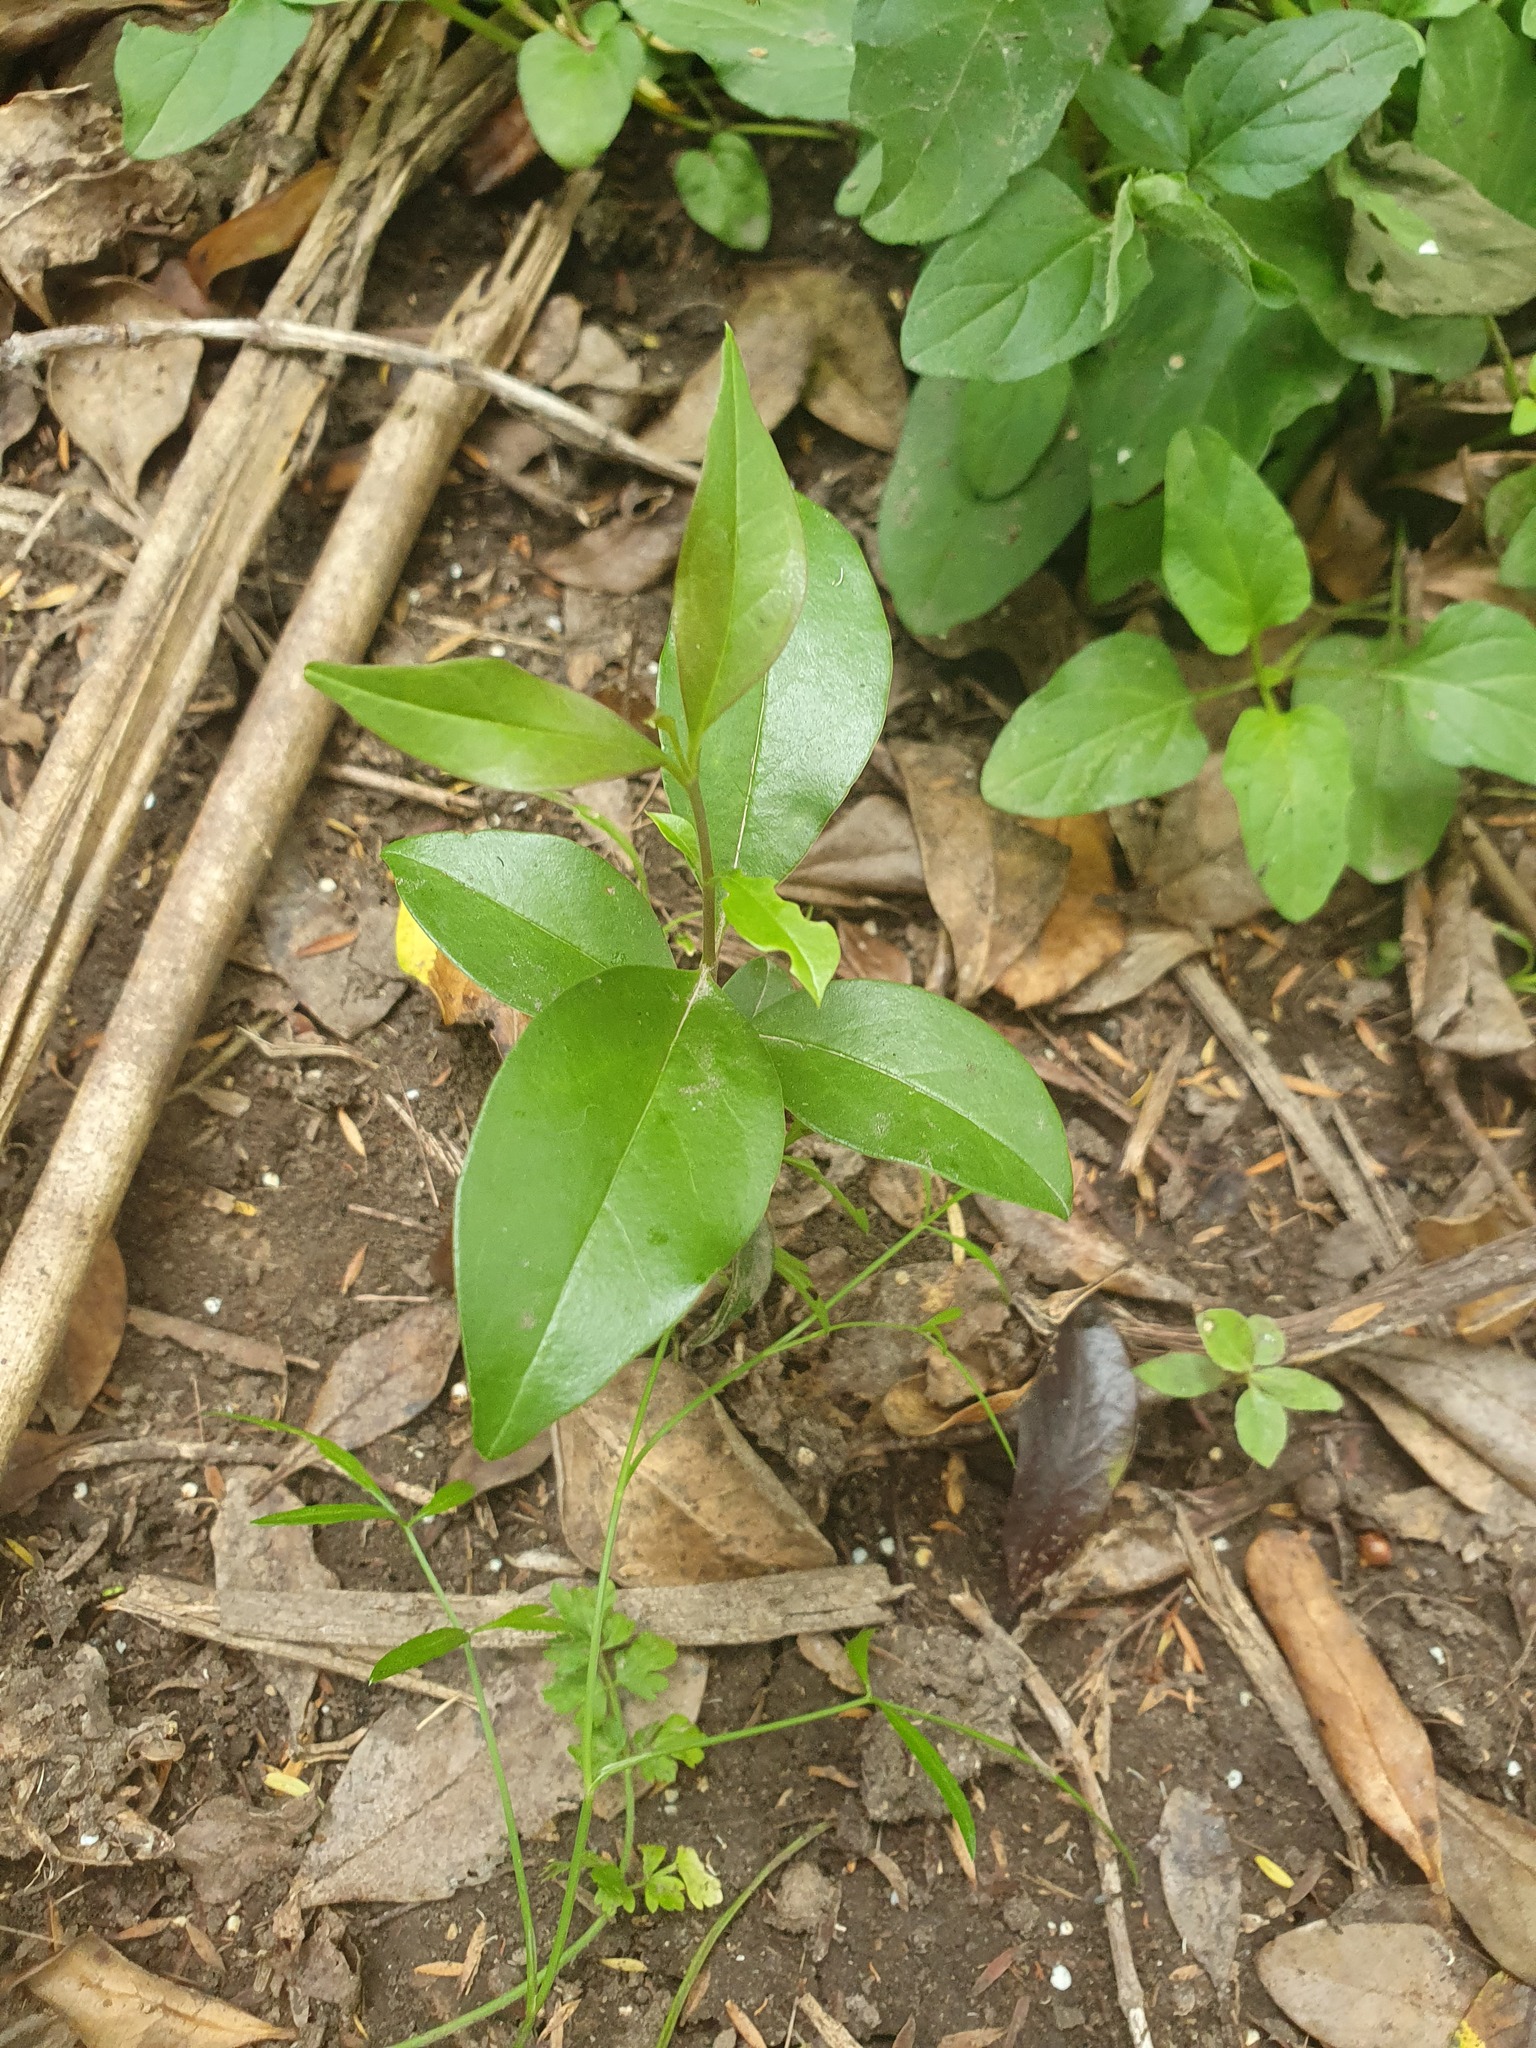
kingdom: Plantae
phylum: Tracheophyta
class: Magnoliopsida
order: Lamiales
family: Oleaceae
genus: Ligustrum
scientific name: Ligustrum lucidum
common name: Glossy privet
